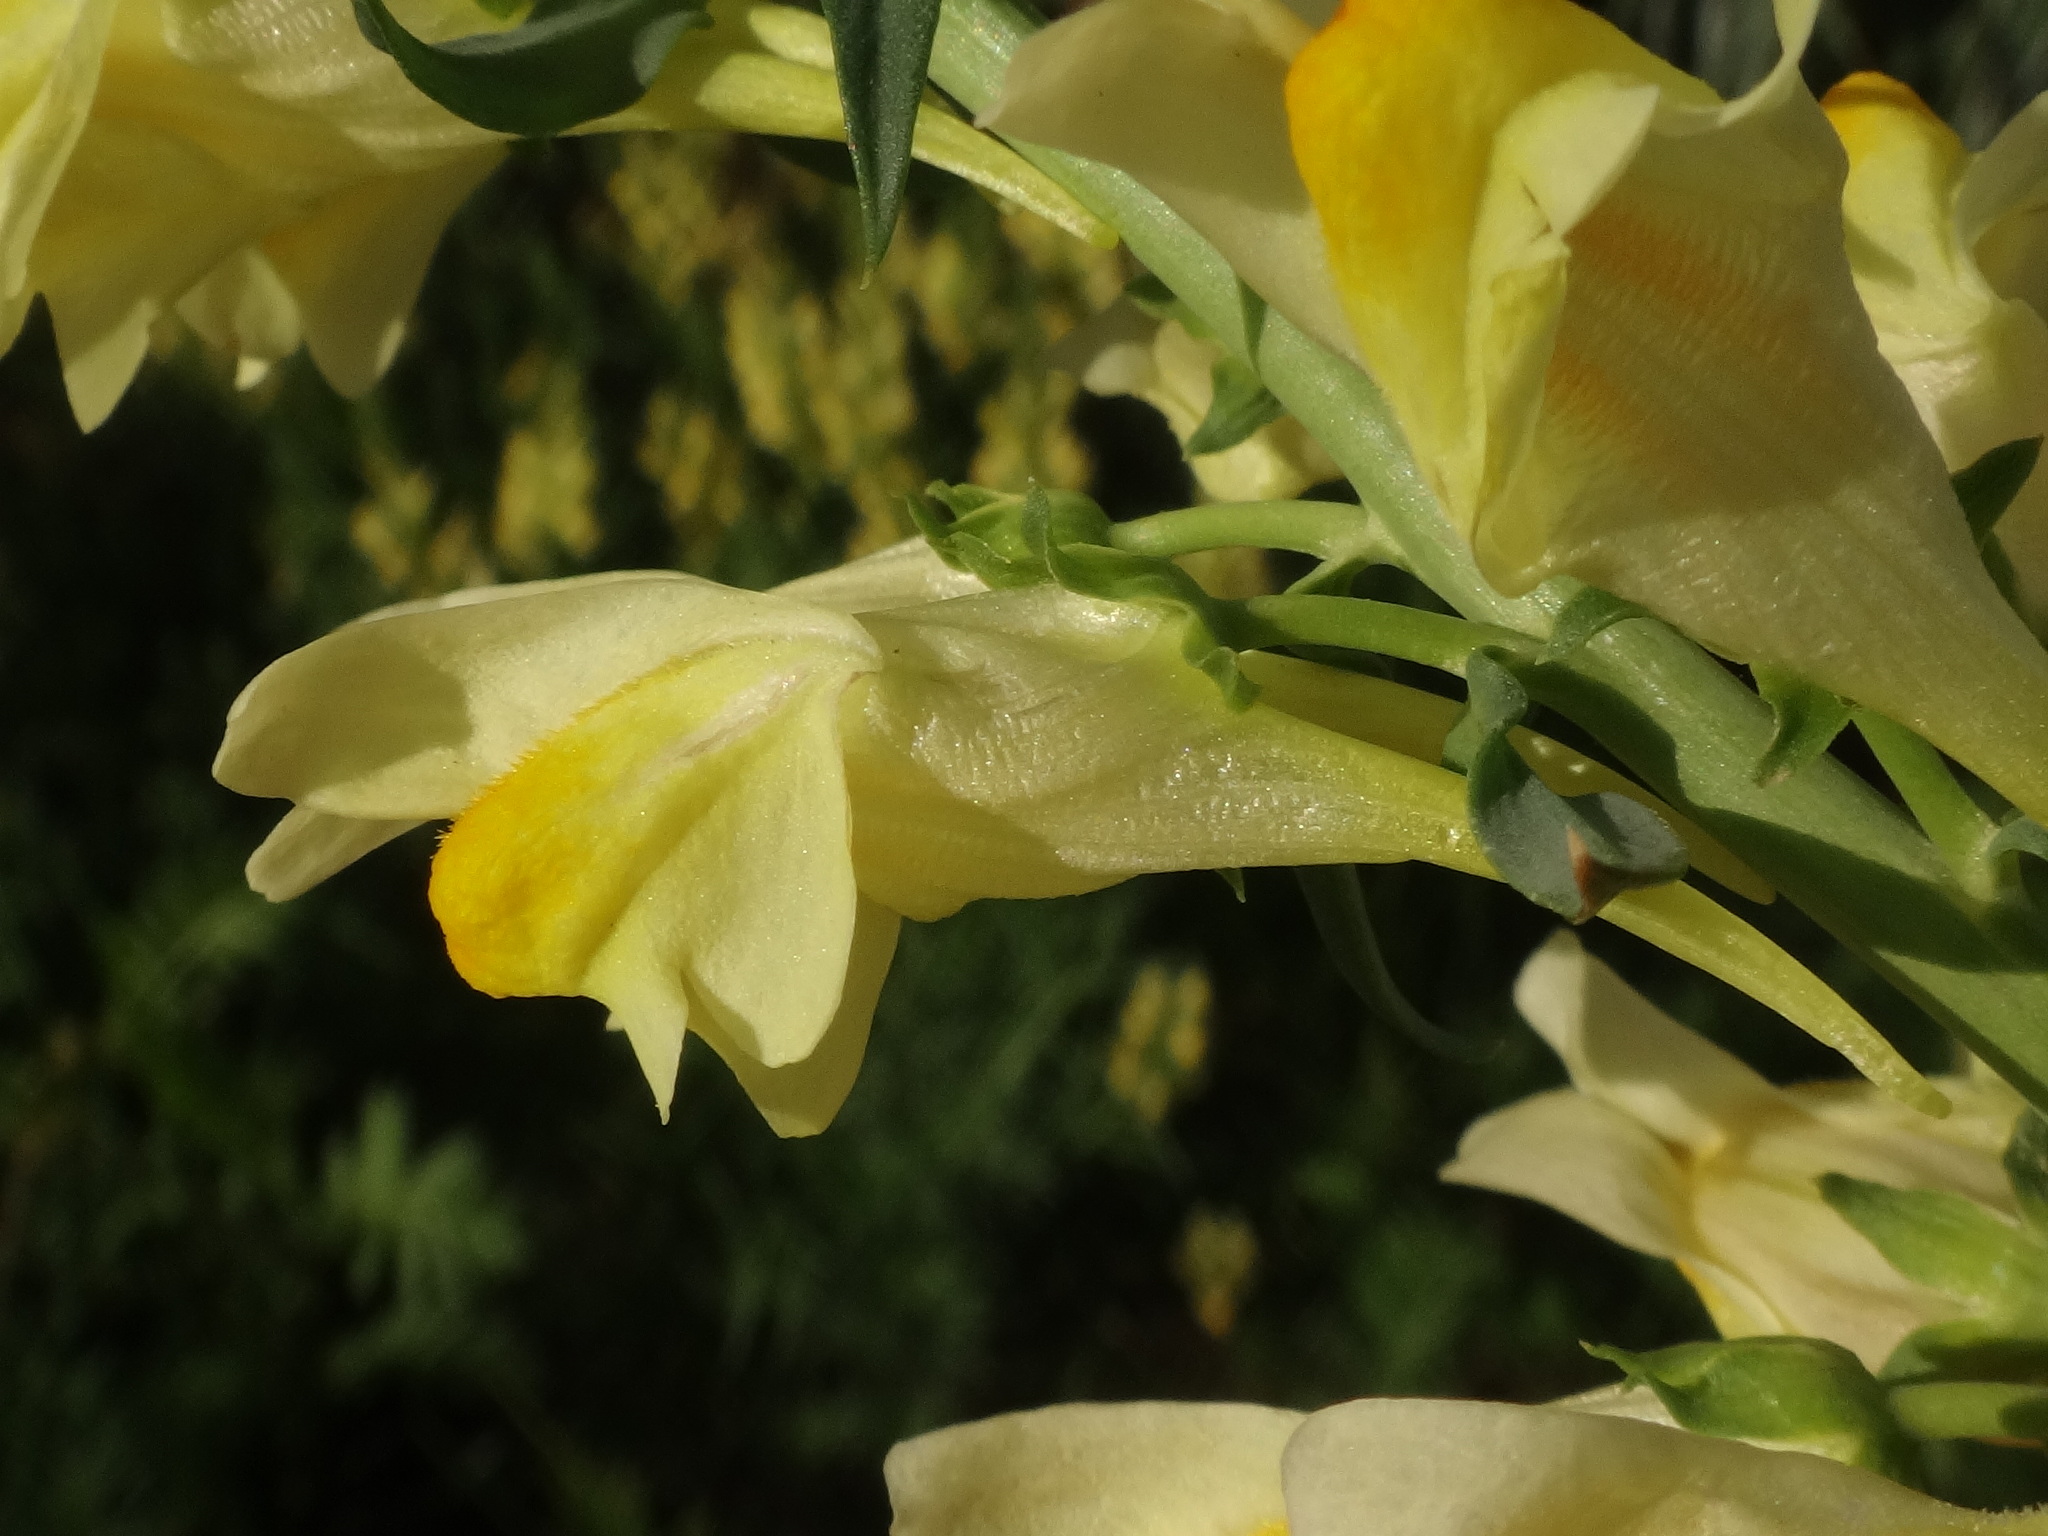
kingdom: Plantae
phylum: Tracheophyta
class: Magnoliopsida
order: Lamiales
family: Plantaginaceae
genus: Linaria
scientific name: Linaria vulgaris
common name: Butter and eggs
